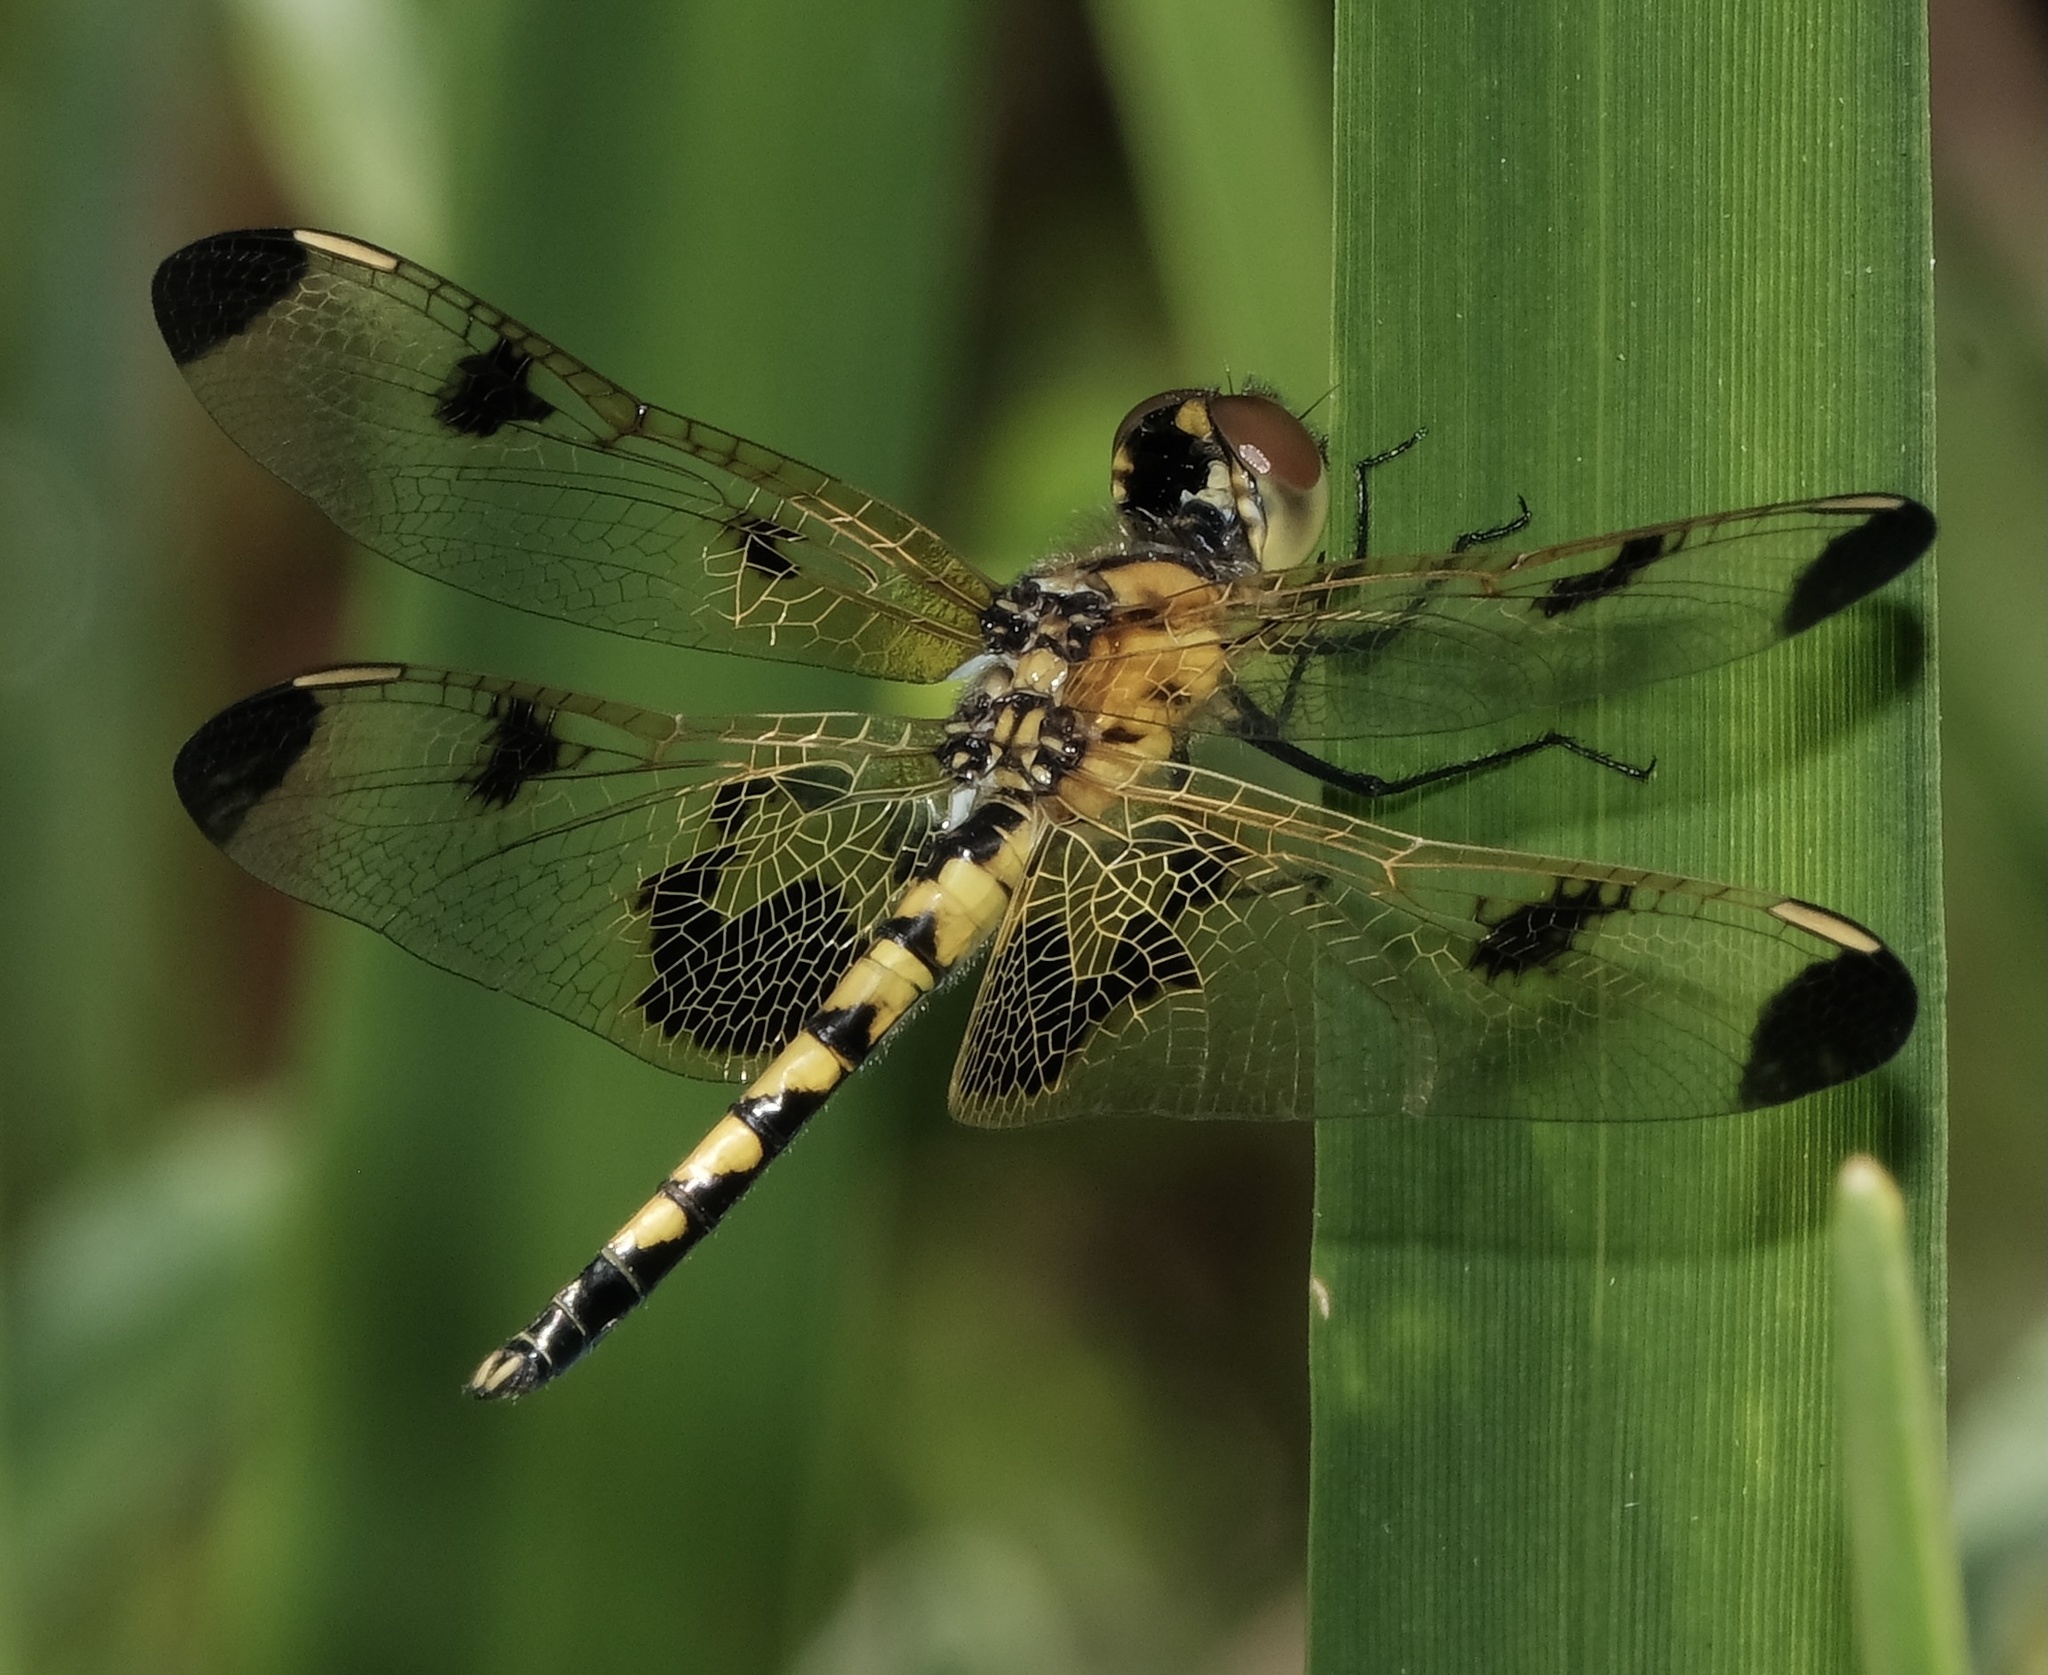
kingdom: Animalia
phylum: Arthropoda
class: Insecta
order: Odonata
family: Libellulidae
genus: Celithemis
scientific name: Celithemis elisa
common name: Calico pennant
